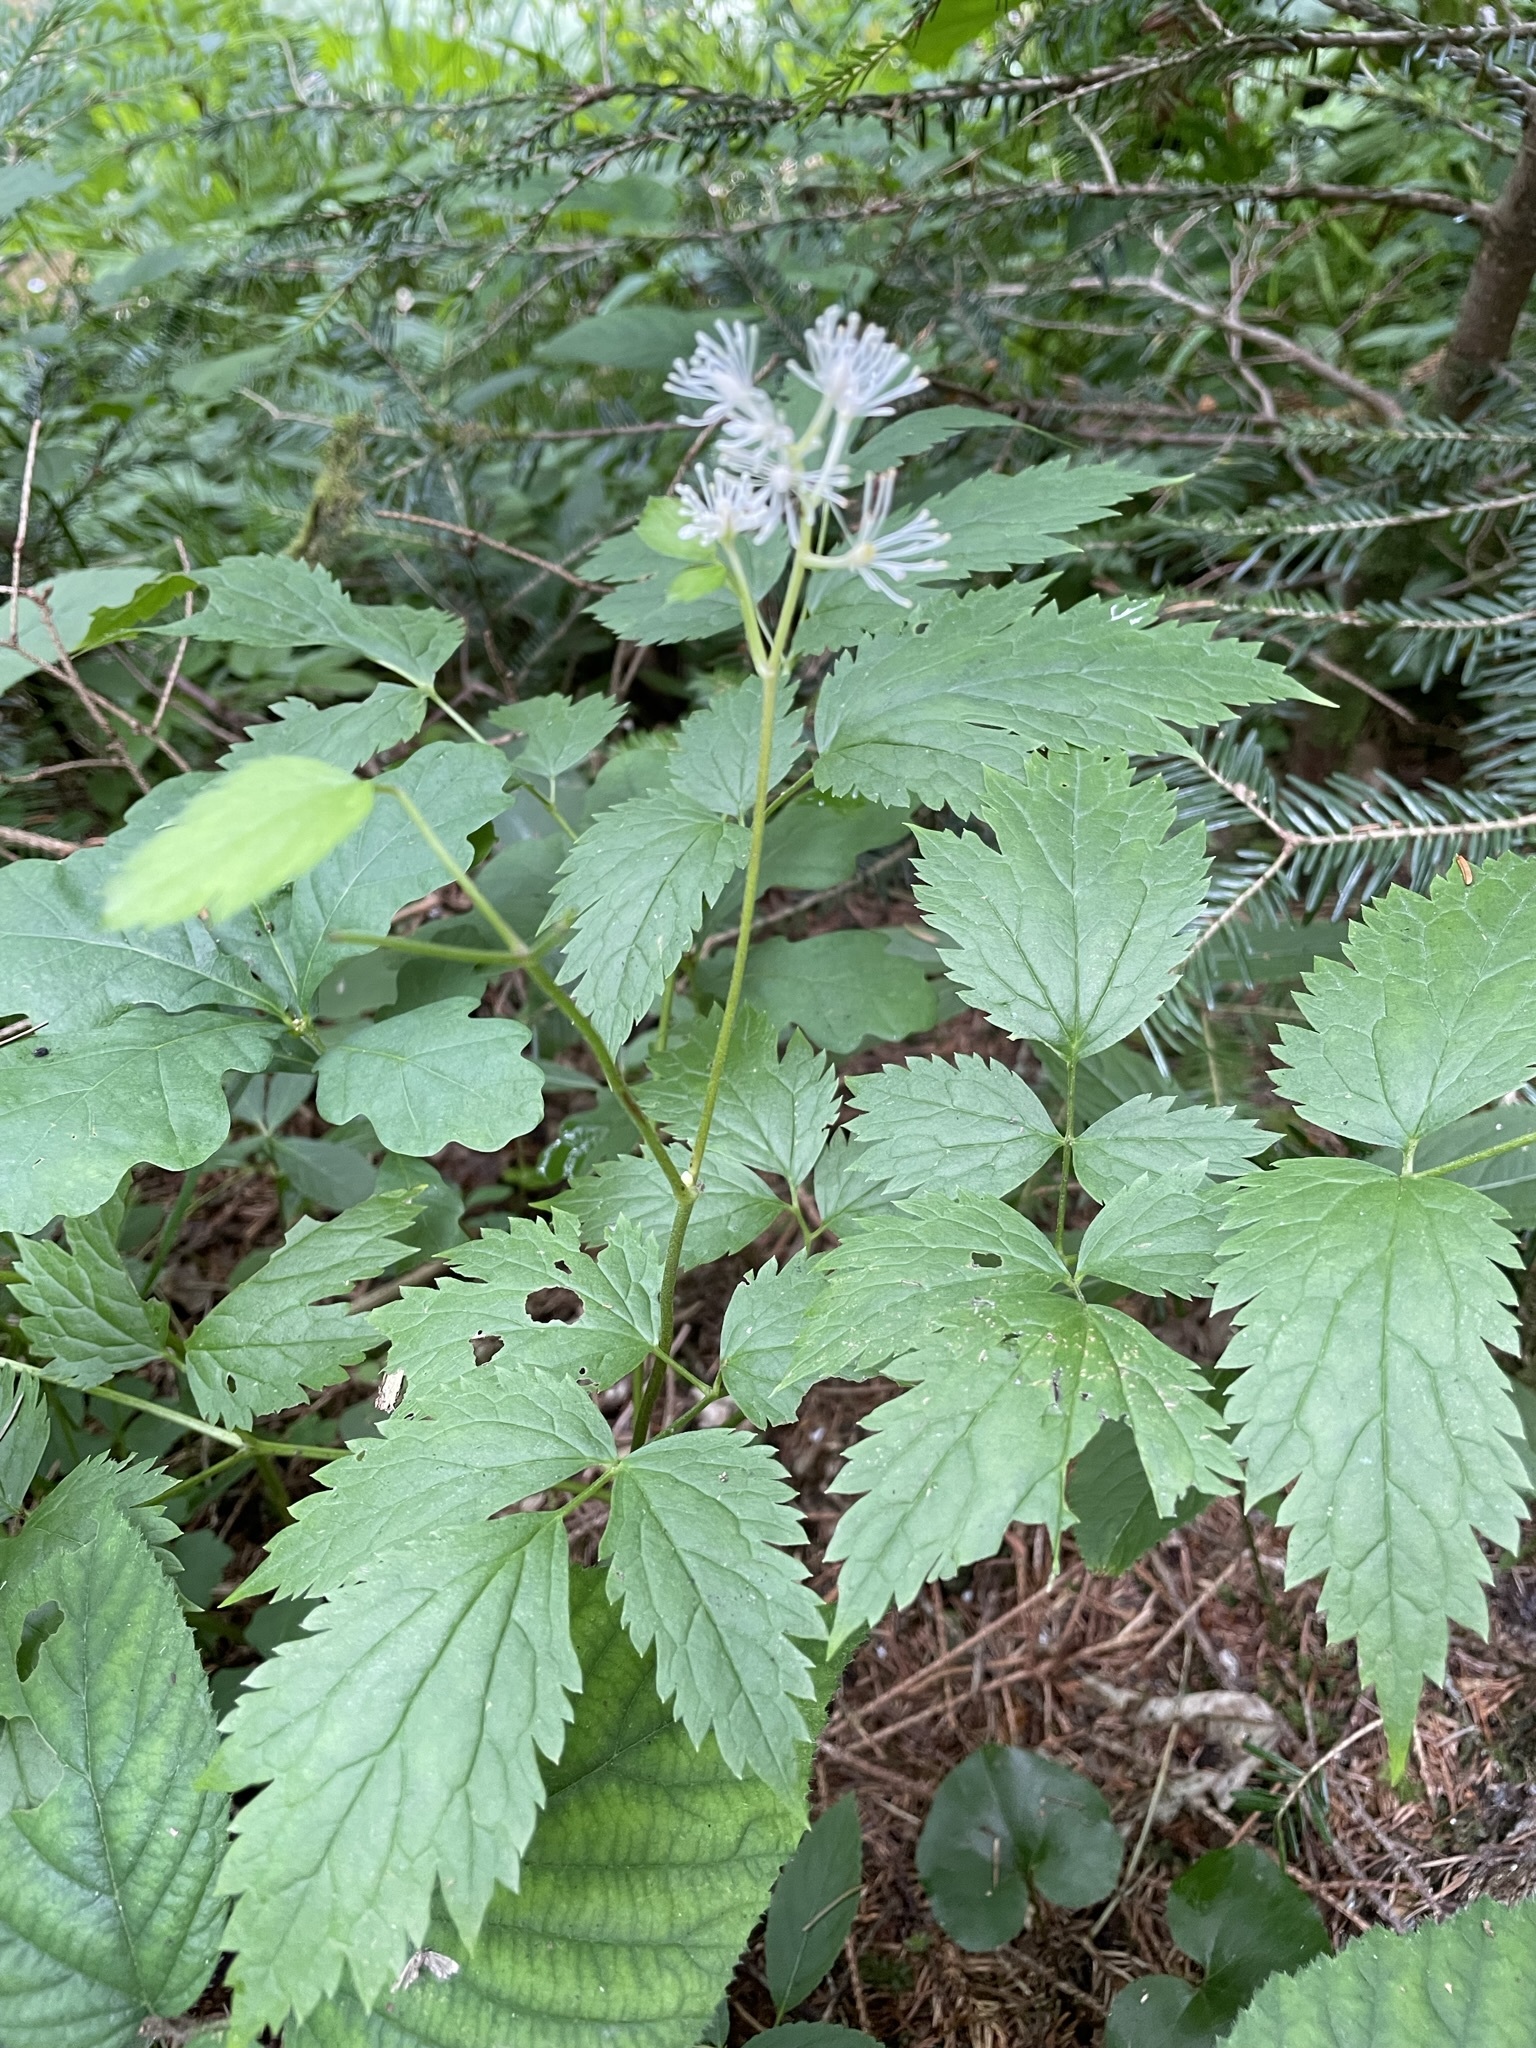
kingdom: Plantae
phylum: Tracheophyta
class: Magnoliopsida
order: Ranunculales
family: Ranunculaceae
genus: Actaea
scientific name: Actaea spicata
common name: Baneberry
